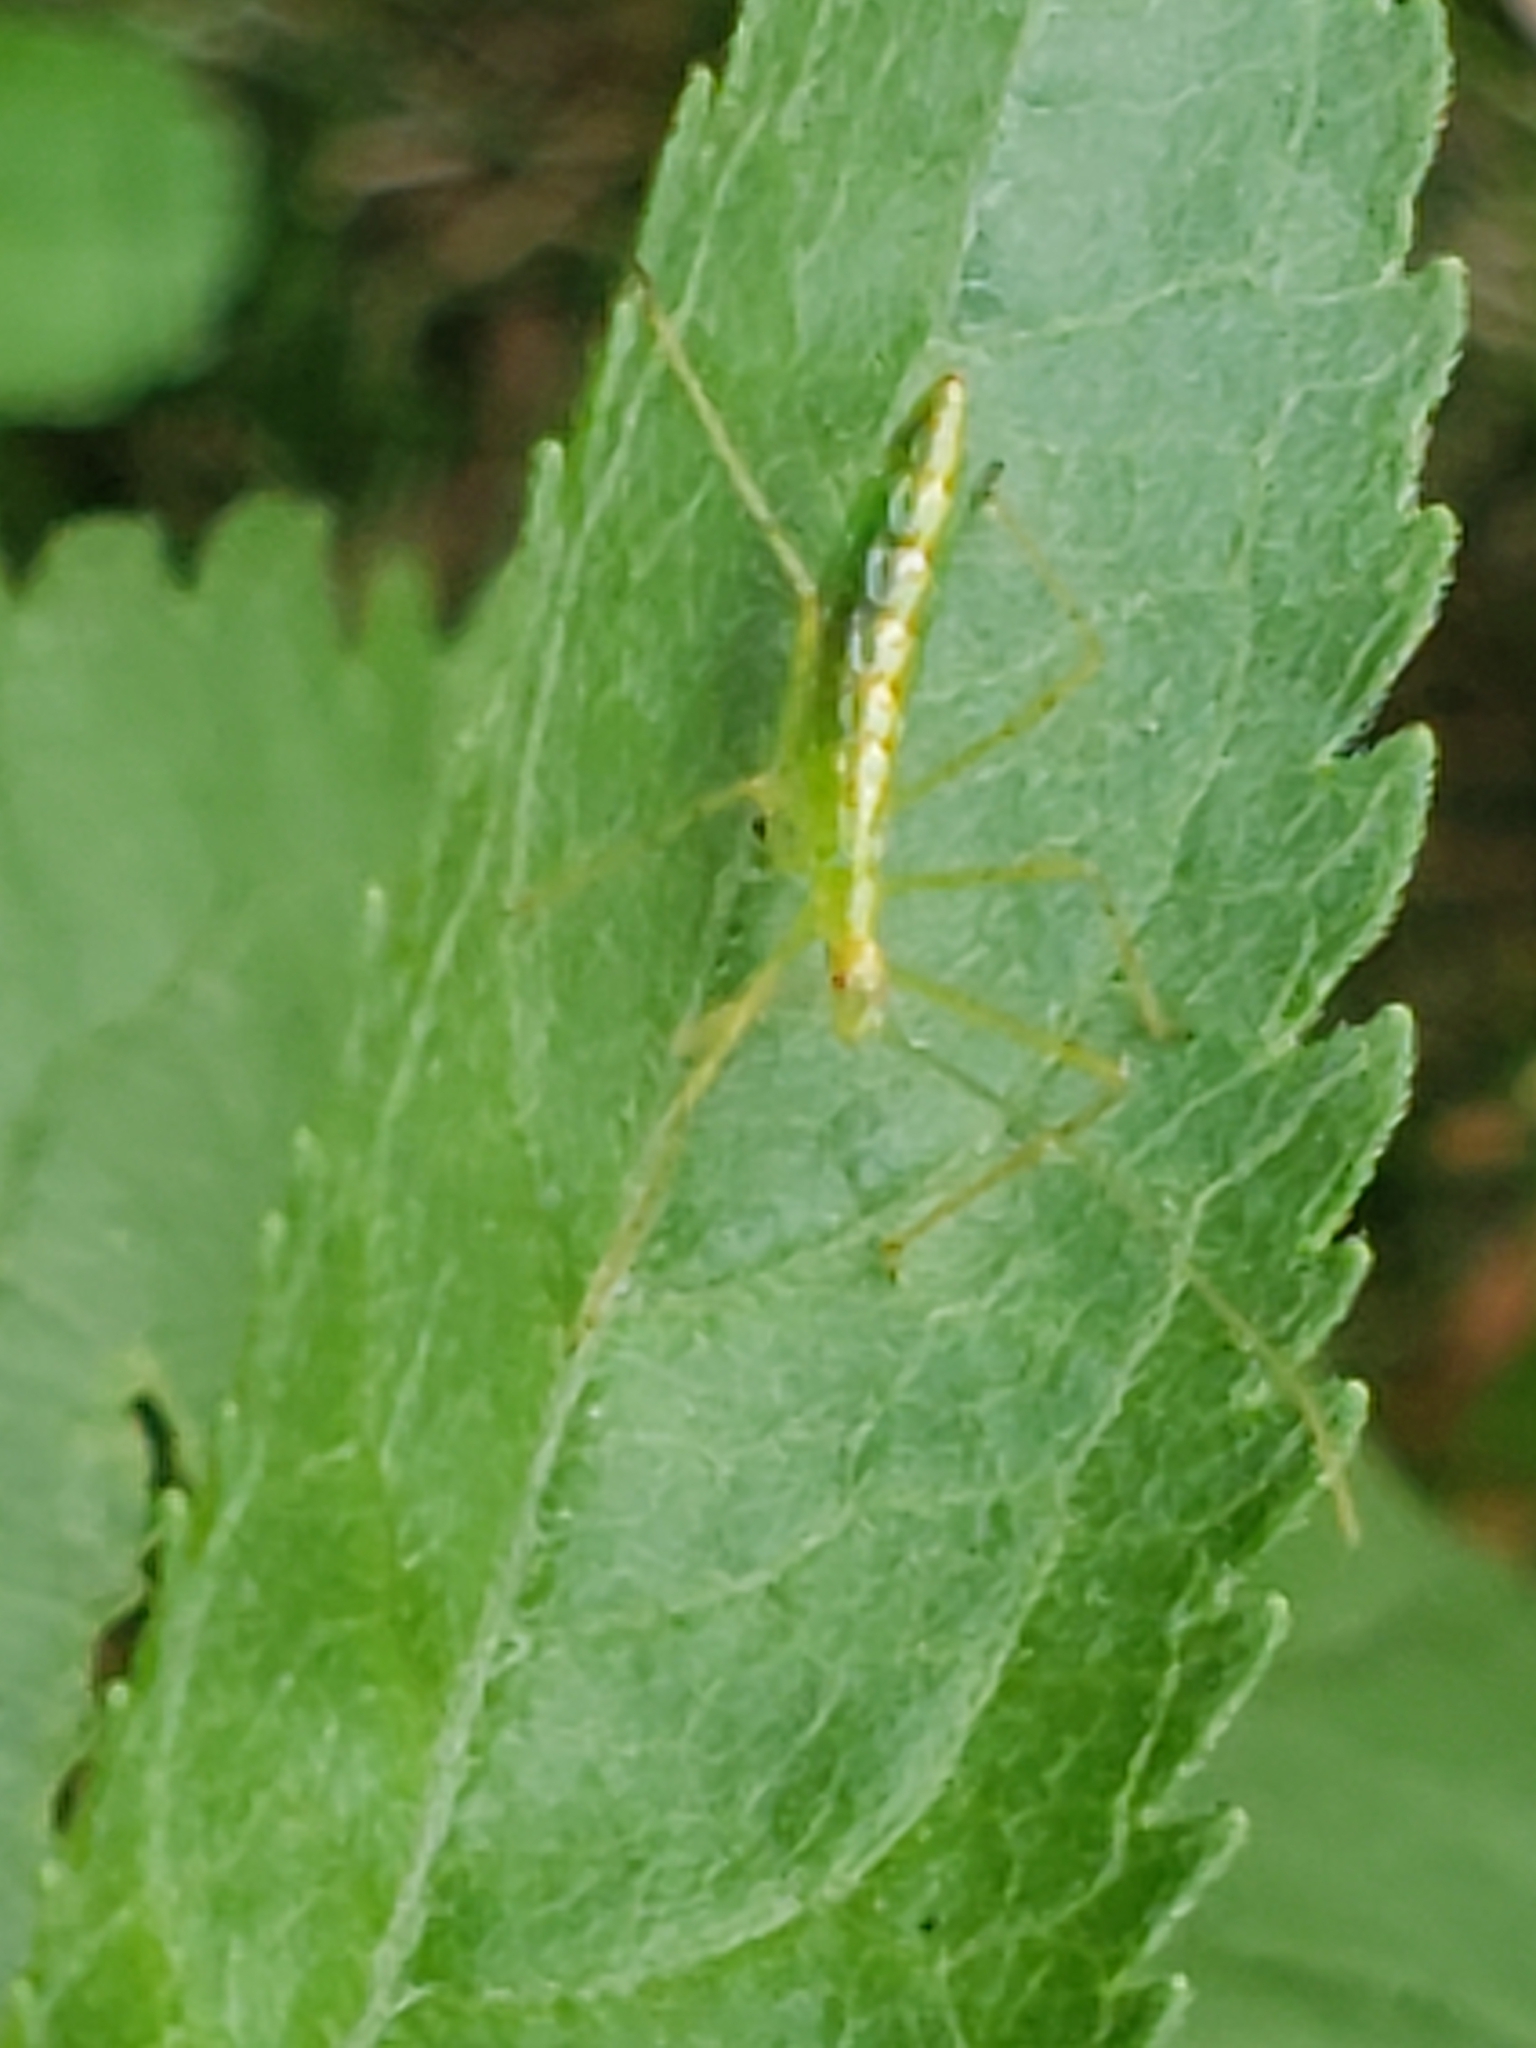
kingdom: Animalia
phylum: Arthropoda
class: Insecta
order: Hemiptera
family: Reduviidae
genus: Zelus
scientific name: Zelus luridus
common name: Pale green assassin bug
